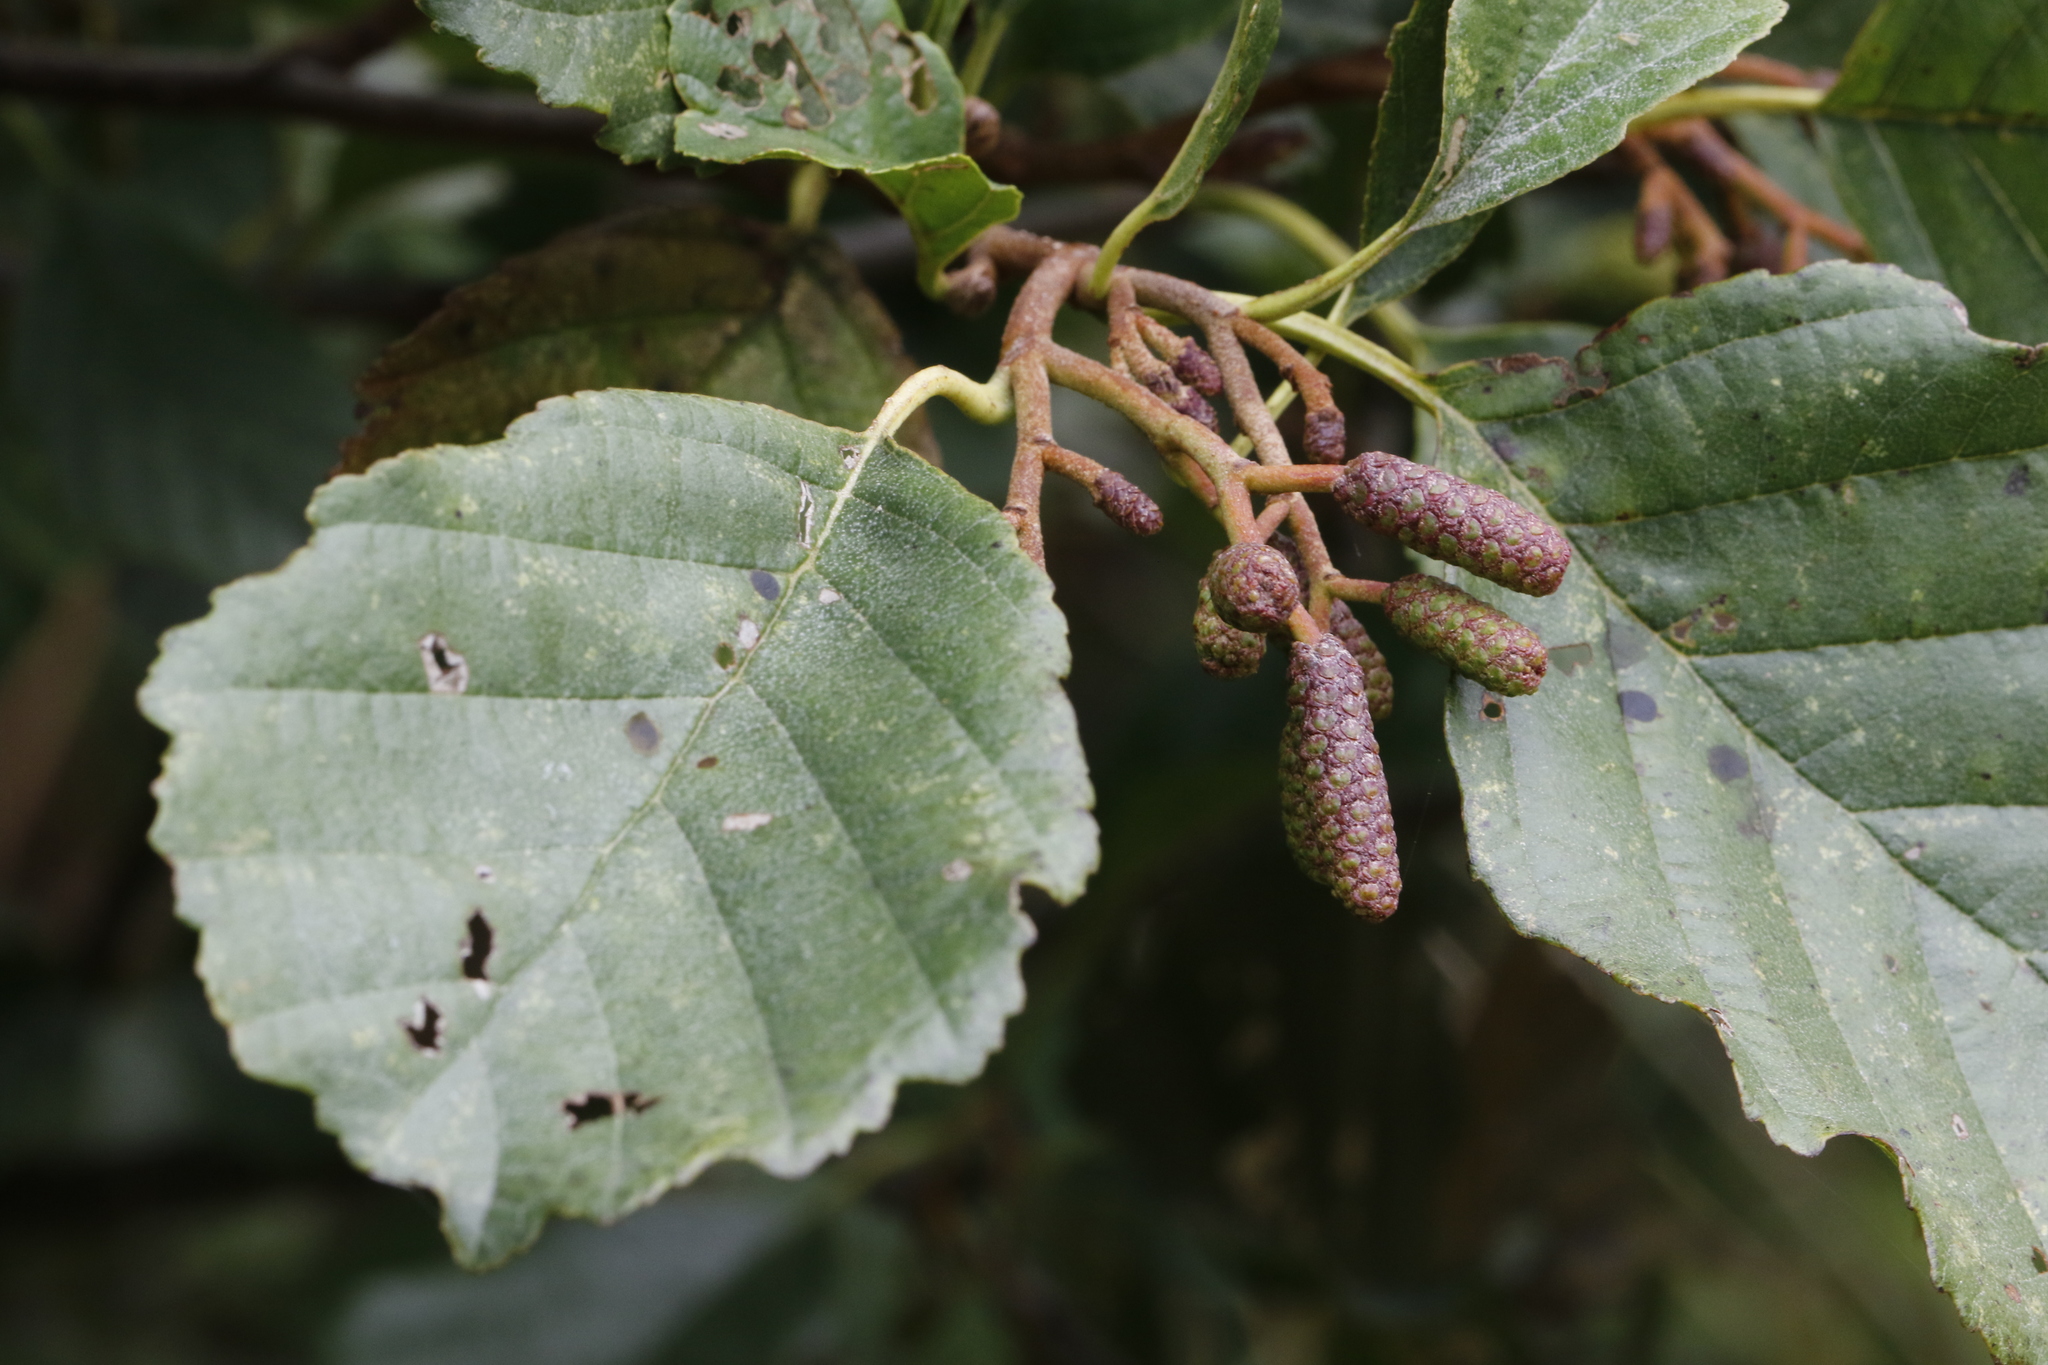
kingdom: Plantae
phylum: Tracheophyta
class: Magnoliopsida
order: Fagales
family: Betulaceae
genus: Alnus
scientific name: Alnus glutinosa
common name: Black alder
